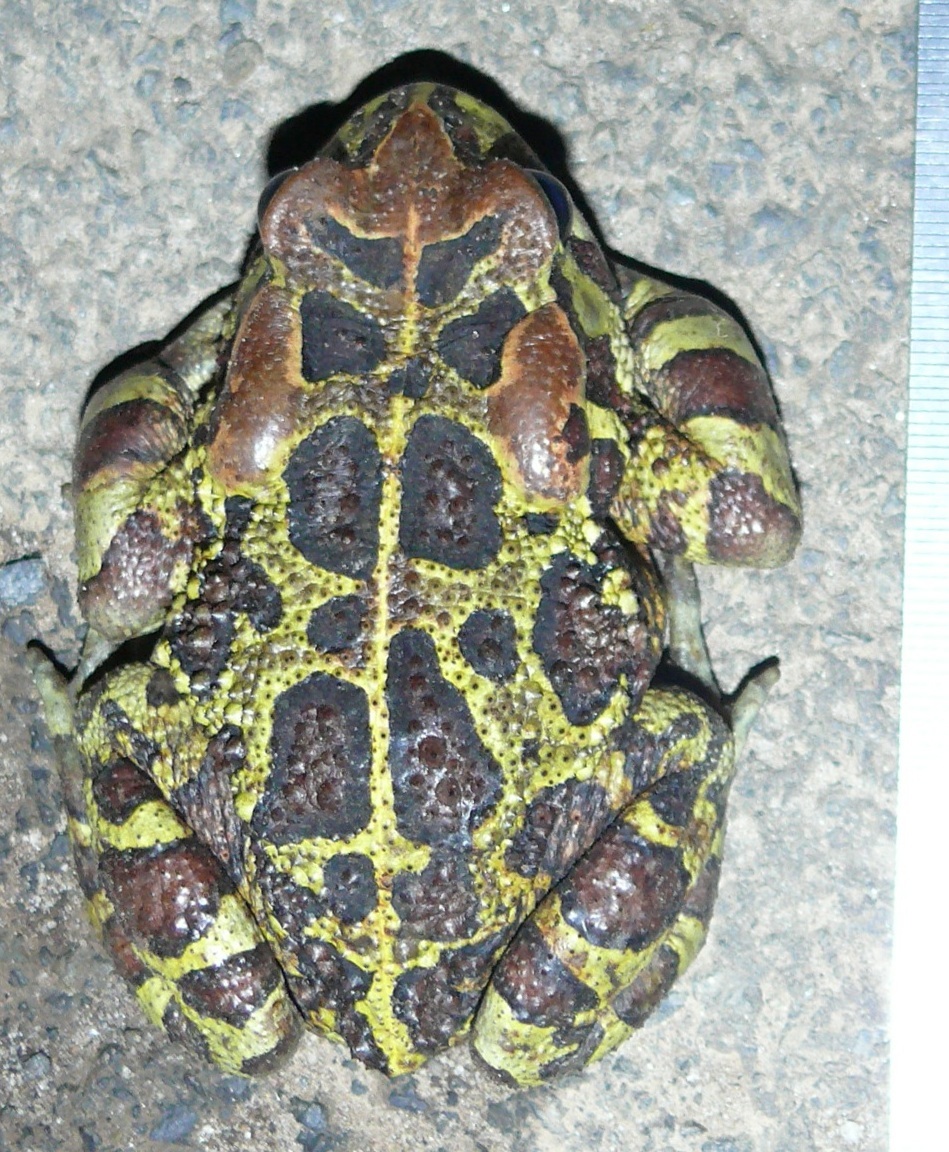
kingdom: Animalia
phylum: Chordata
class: Amphibia
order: Anura
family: Bufonidae
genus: Sclerophrys
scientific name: Sclerophrys pantherina
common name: Panther toad
